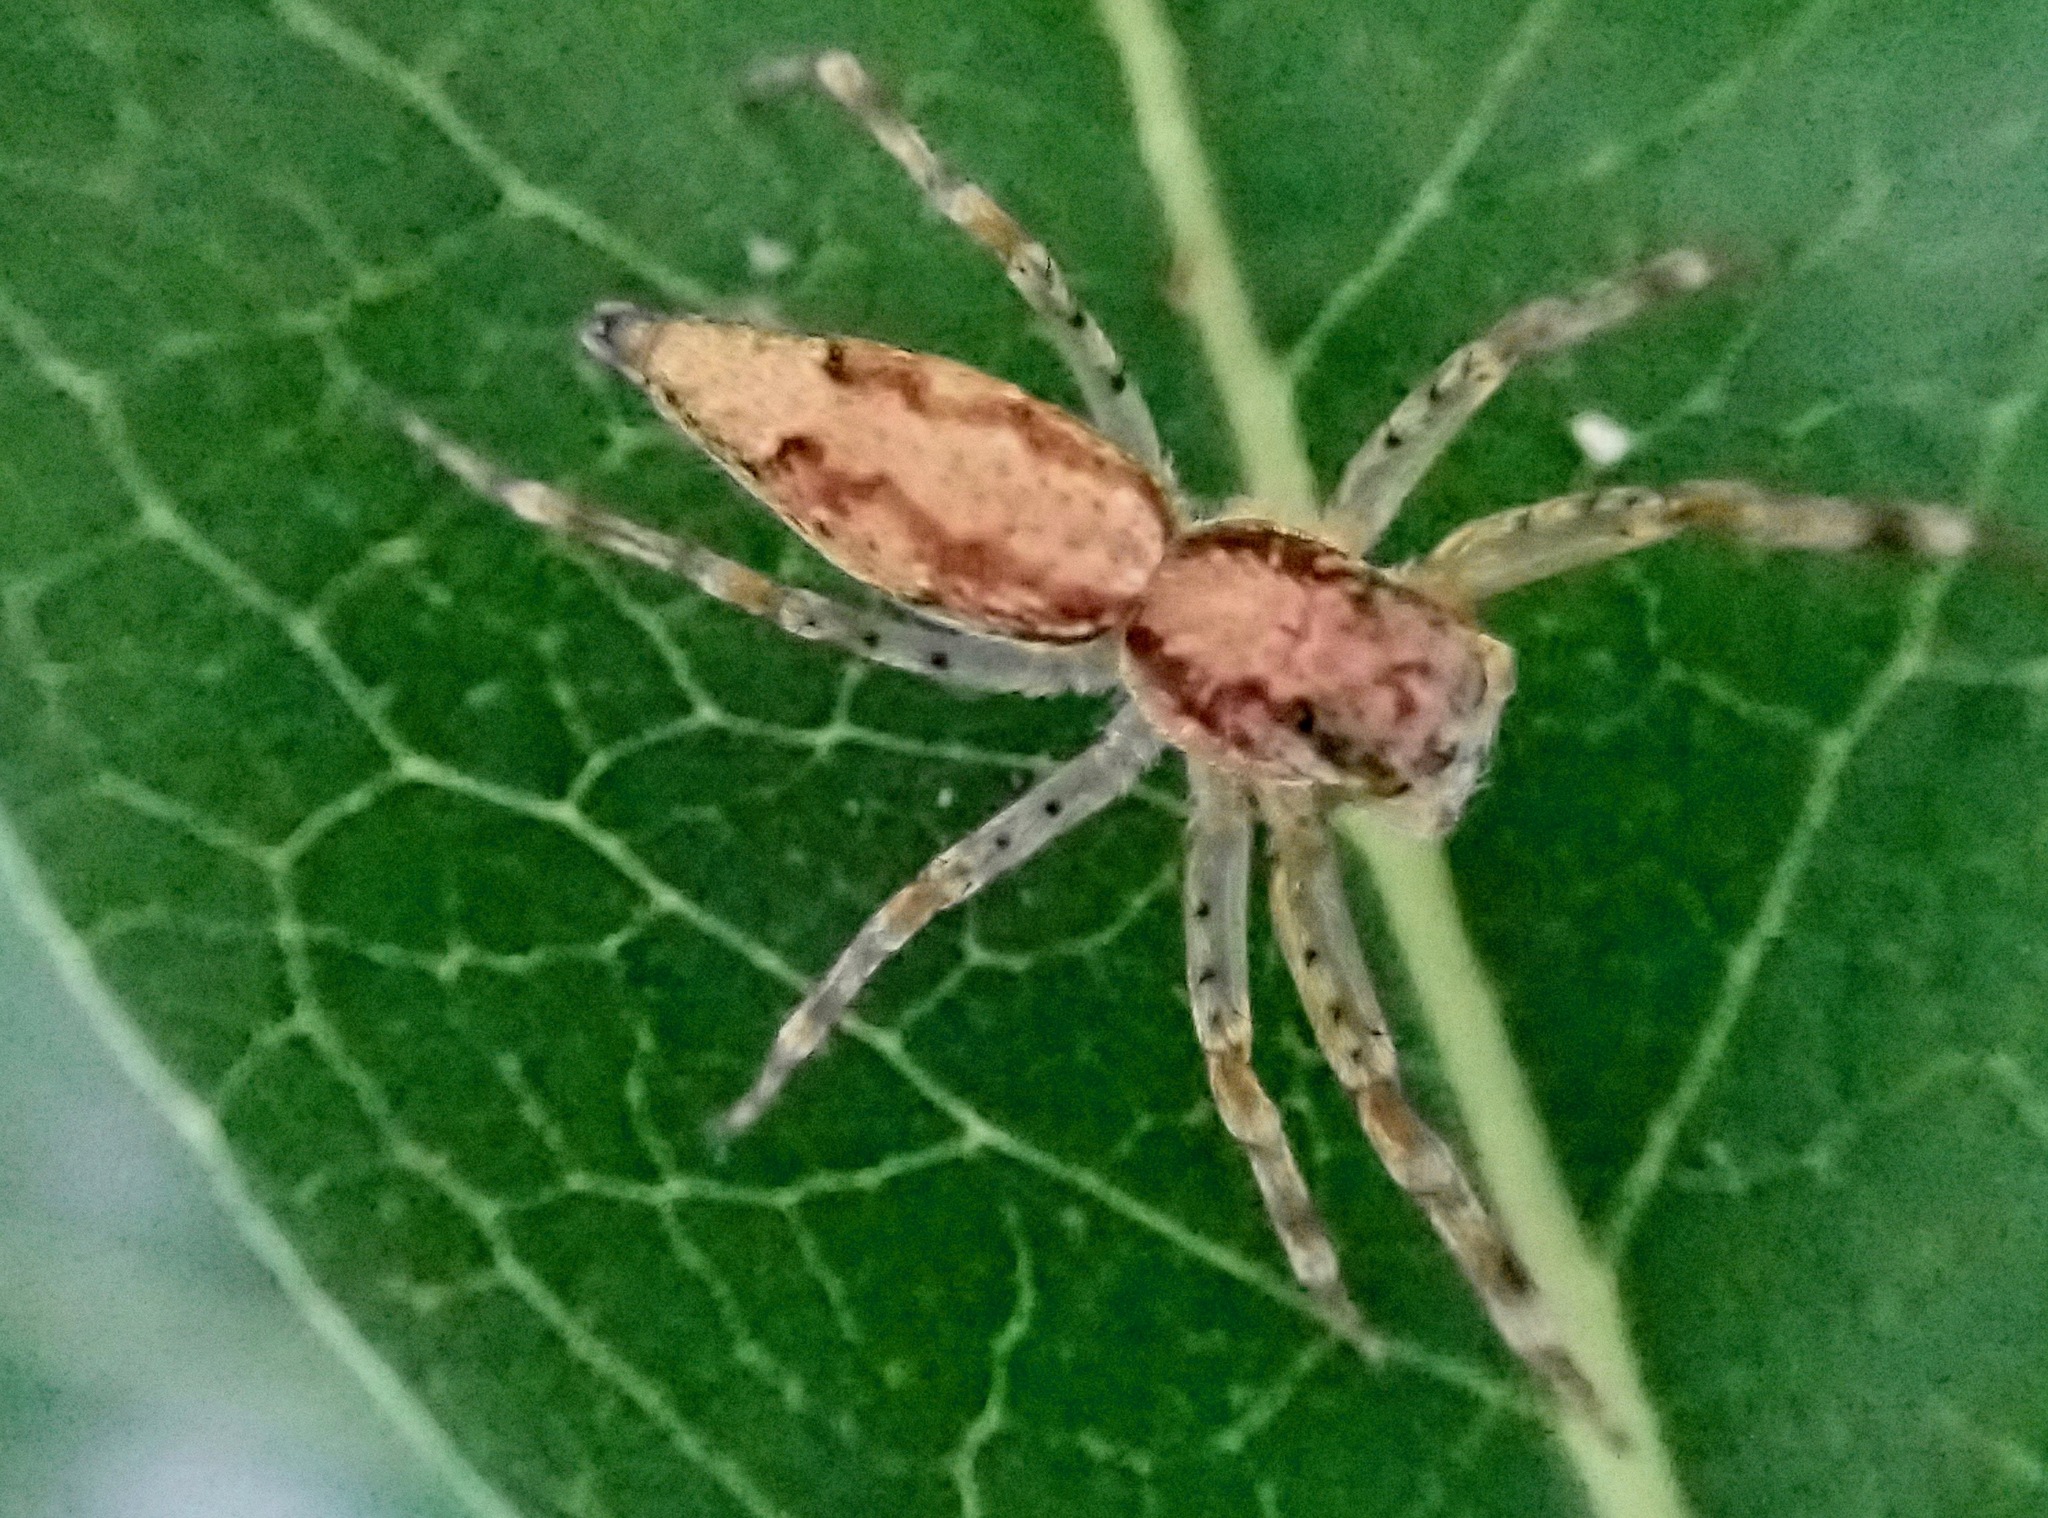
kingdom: Animalia
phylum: Arthropoda
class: Arachnida
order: Araneae
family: Salticidae
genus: Helpis
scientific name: Helpis minitabunda
